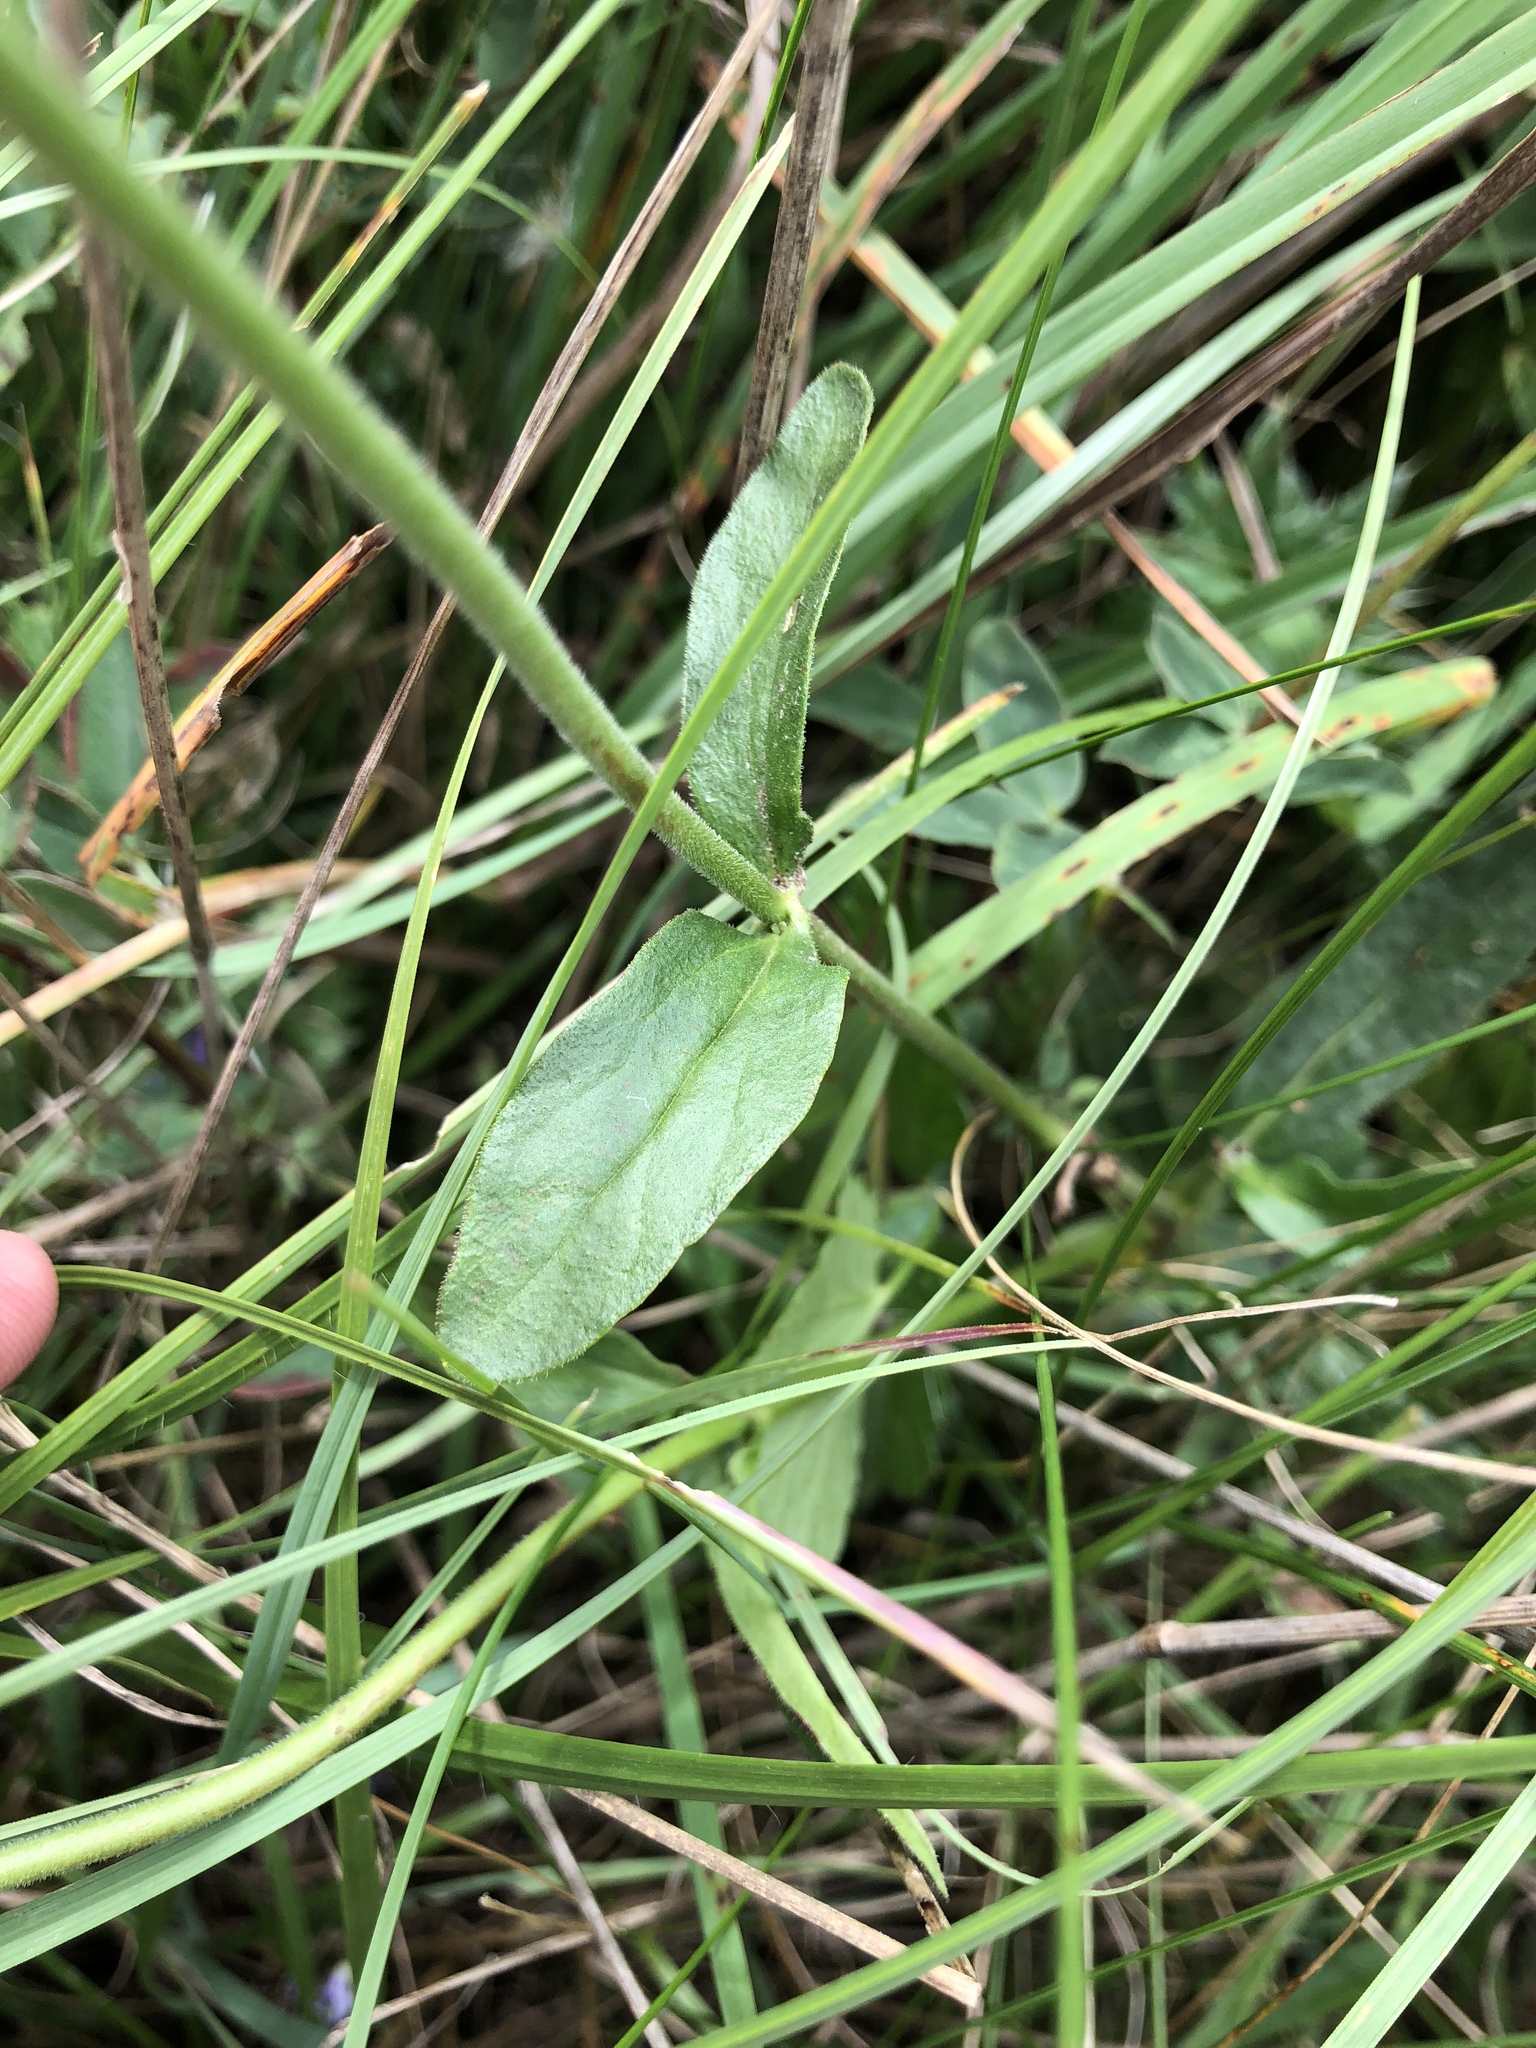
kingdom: Plantae
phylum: Tracheophyta
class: Magnoliopsida
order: Lamiales
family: Plantaginaceae
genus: Veronica
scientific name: Veronica orchidea
